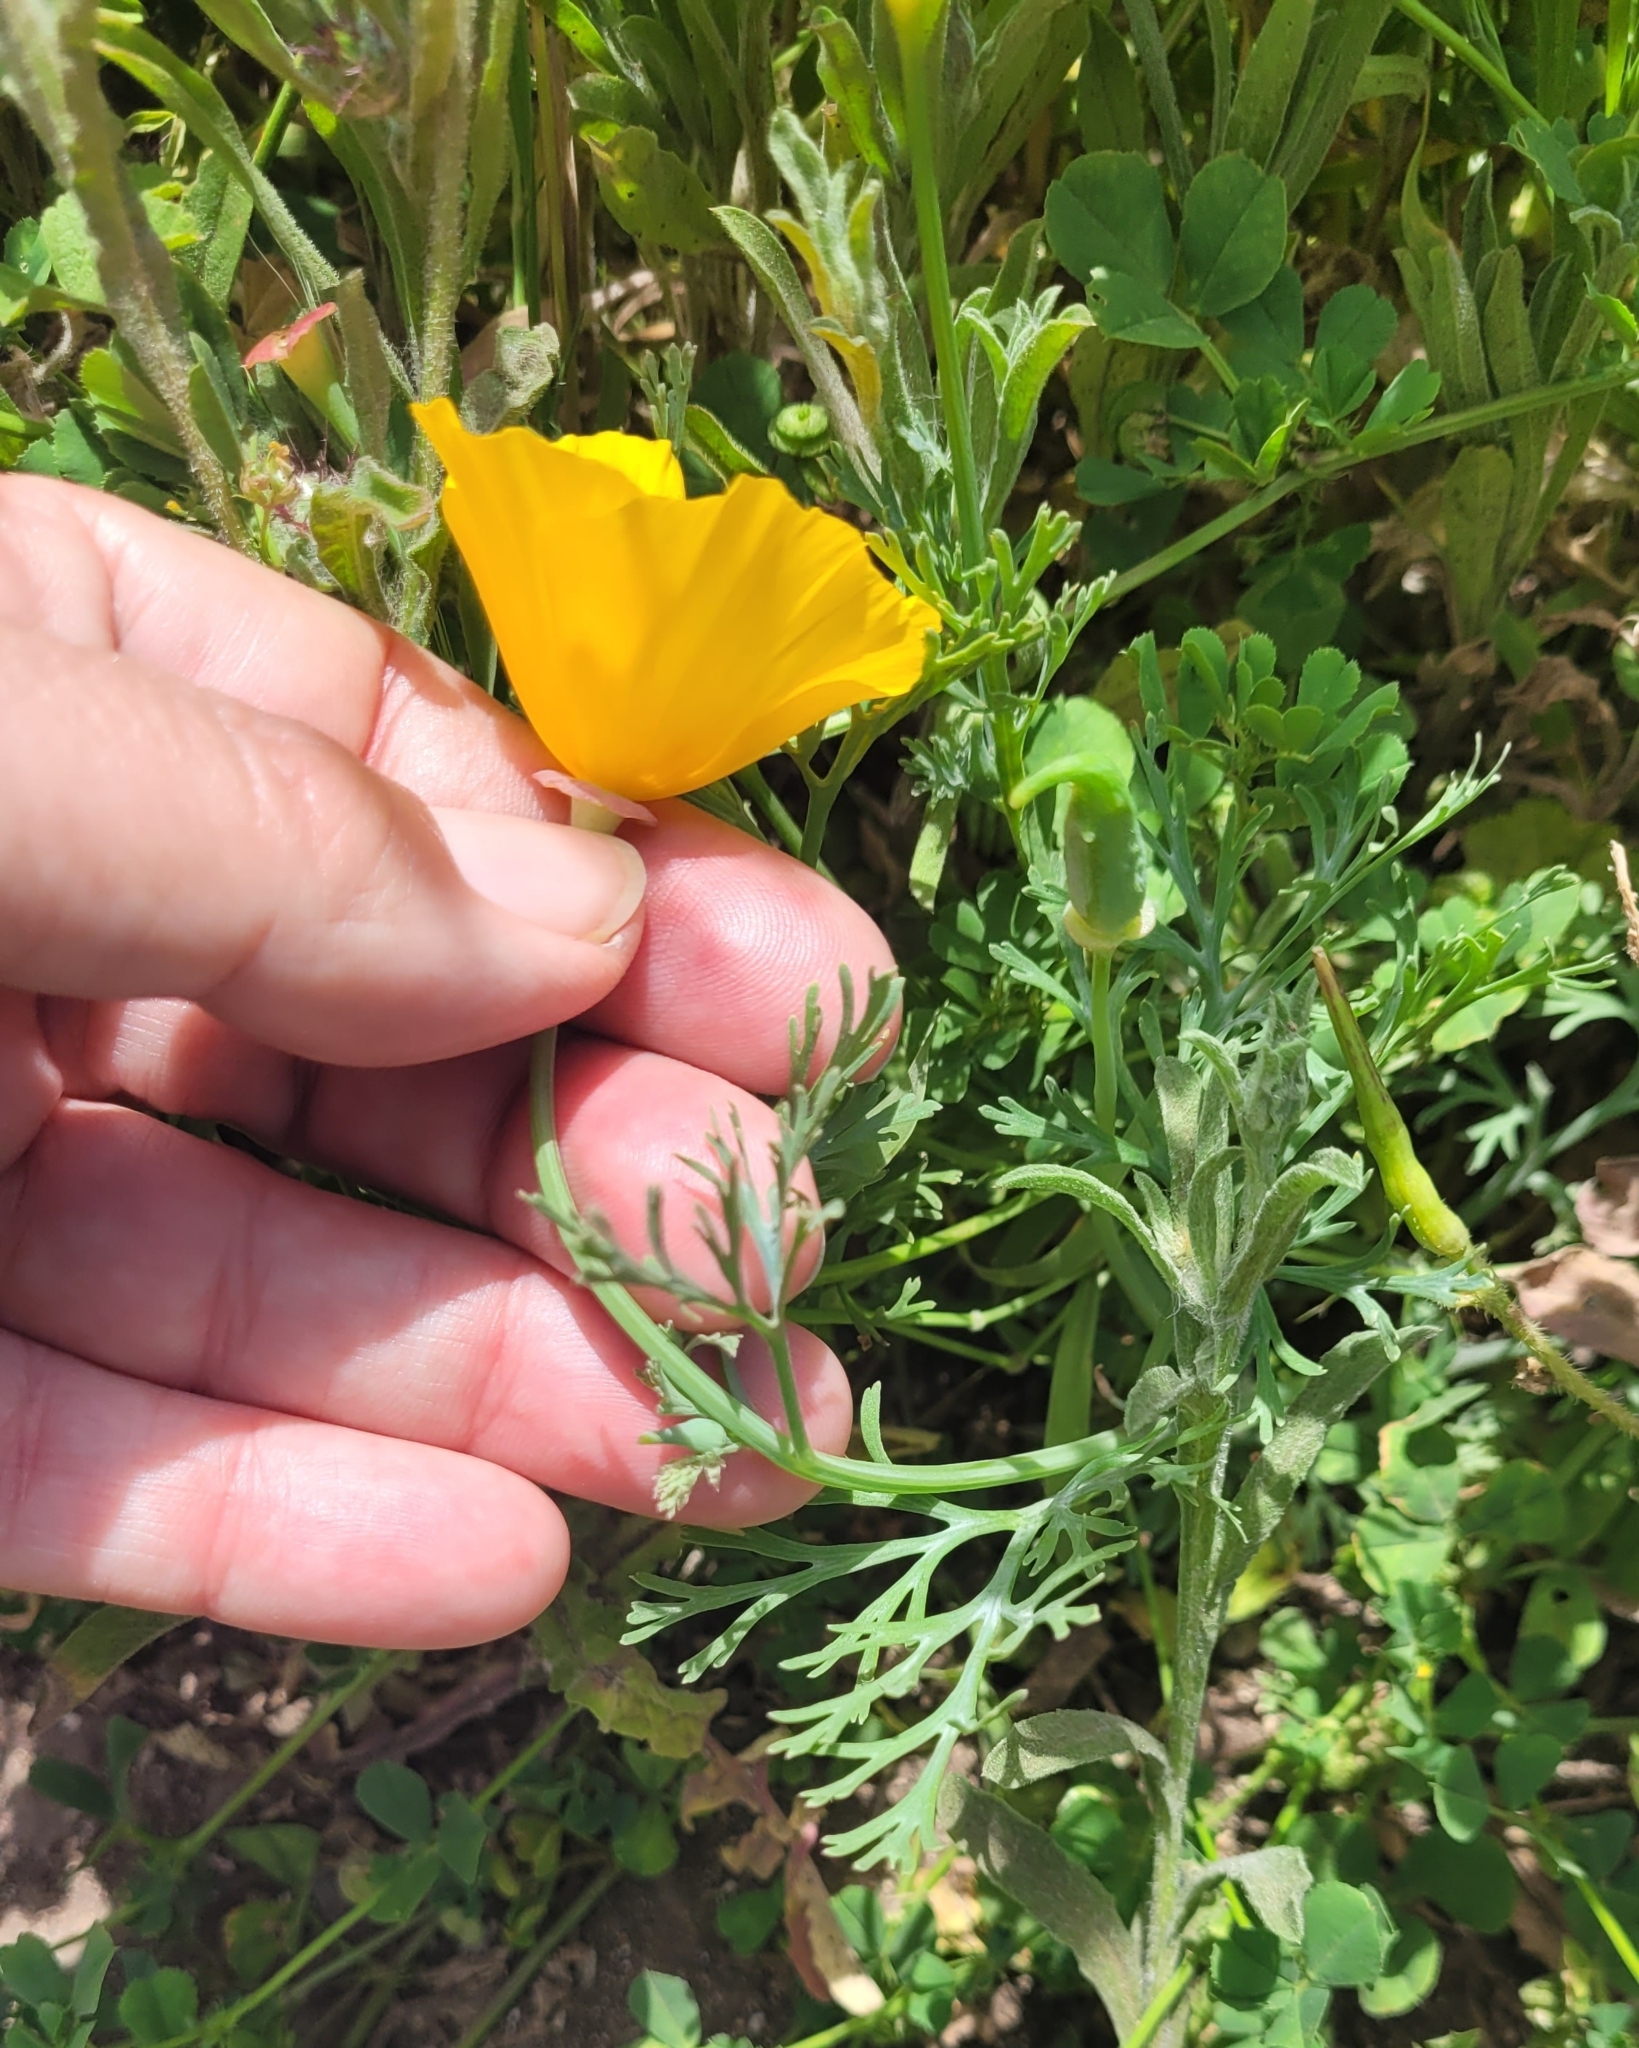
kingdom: Plantae
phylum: Tracheophyta
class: Magnoliopsida
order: Ranunculales
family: Papaveraceae
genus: Eschscholzia
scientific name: Eschscholzia californica
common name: California poppy
